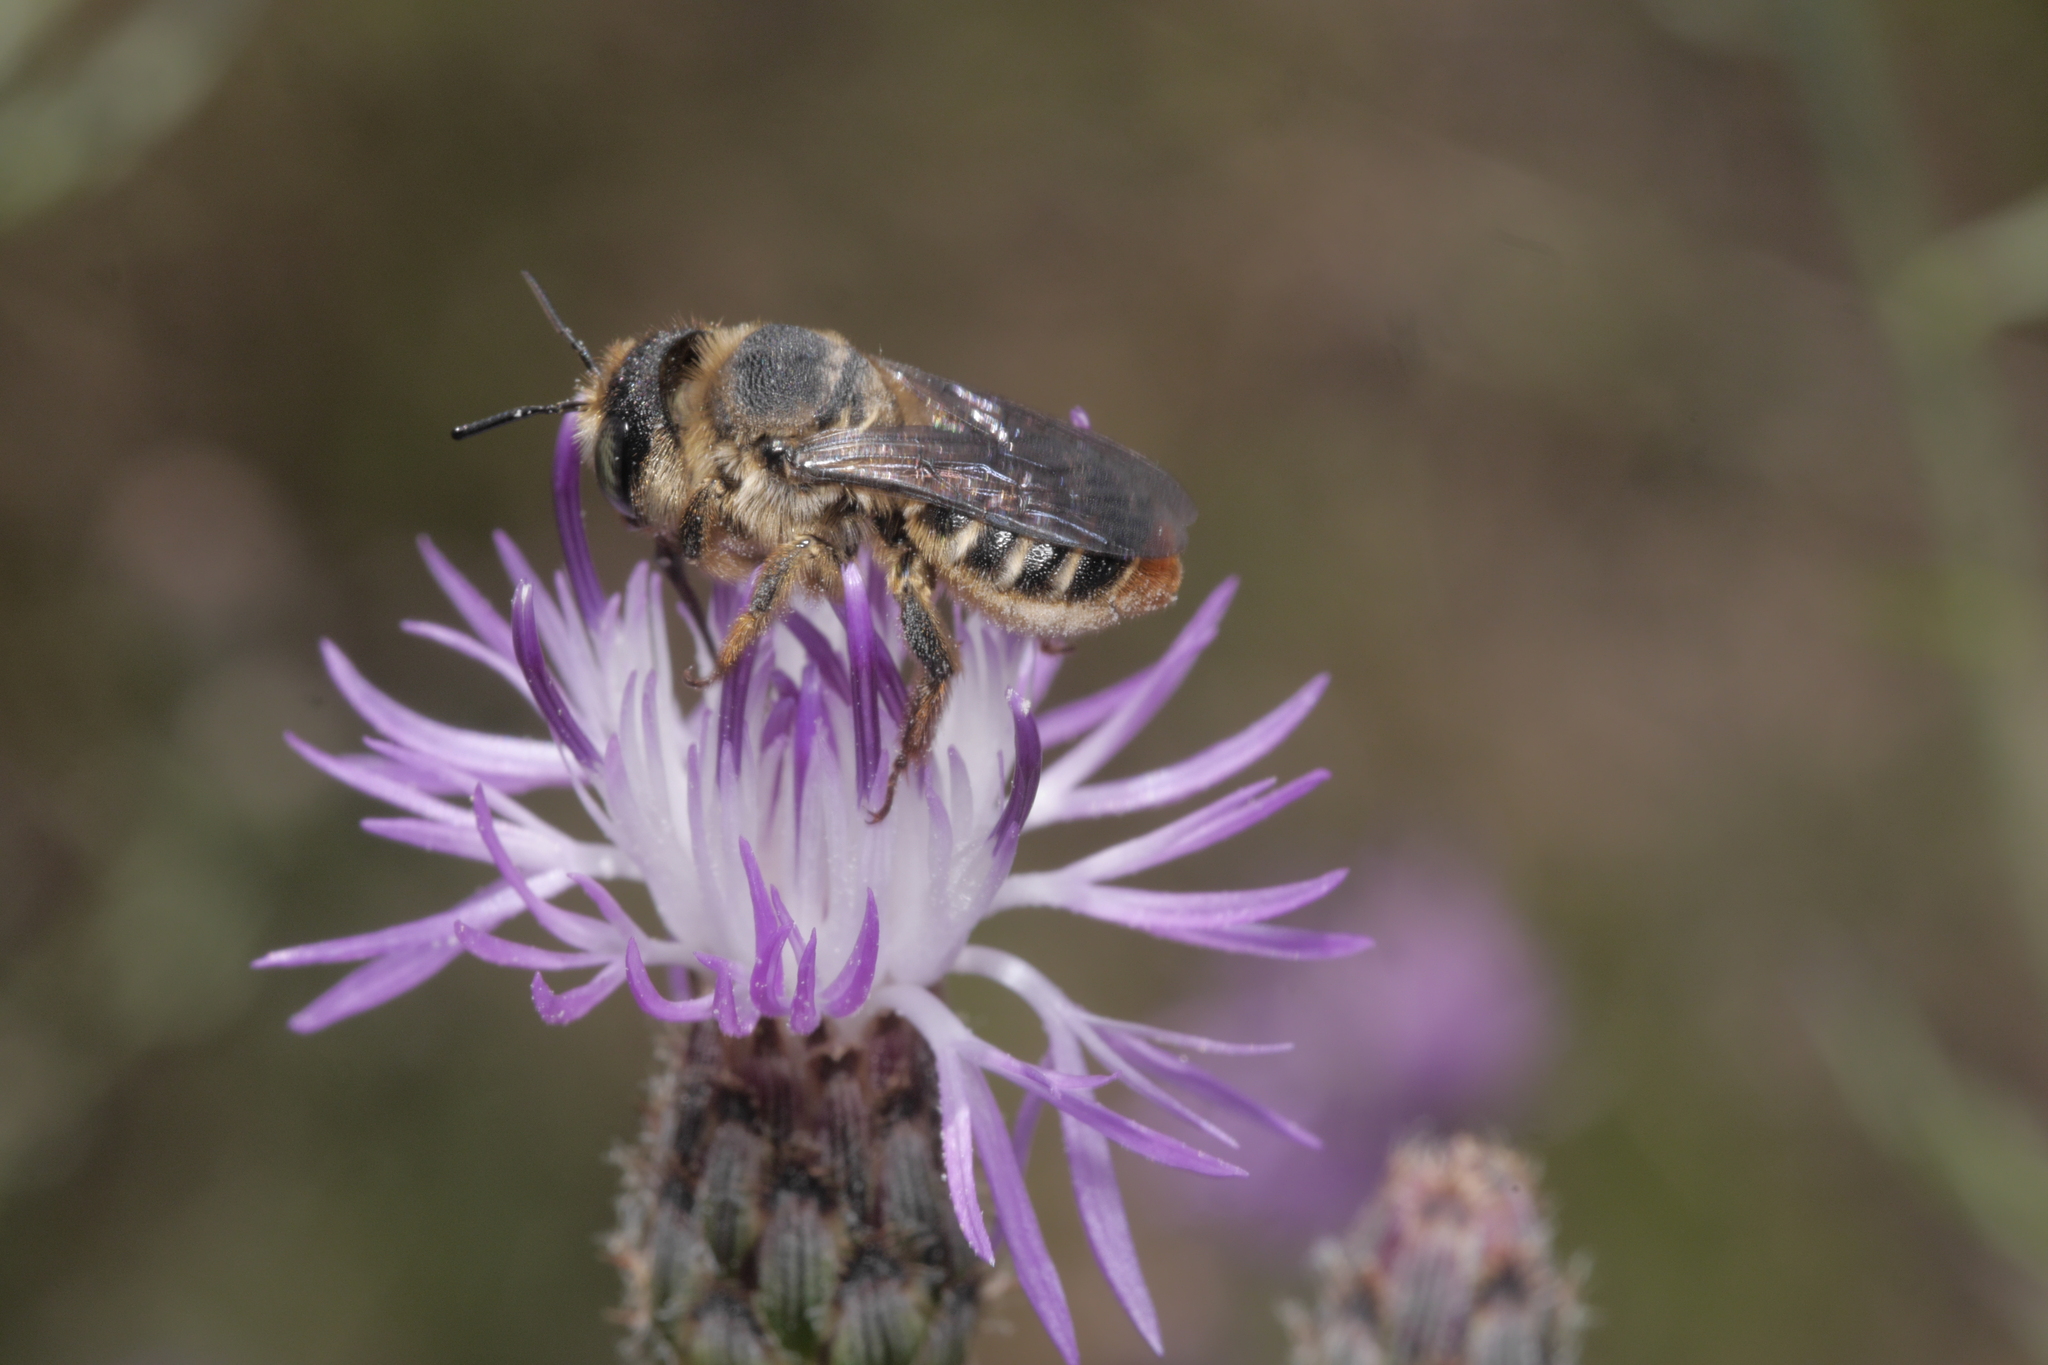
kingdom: Animalia
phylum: Arthropoda
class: Insecta
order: Hymenoptera
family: Megachilidae
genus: Lithurgus
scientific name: Lithurgus chrysurus
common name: Wood-boring bee
